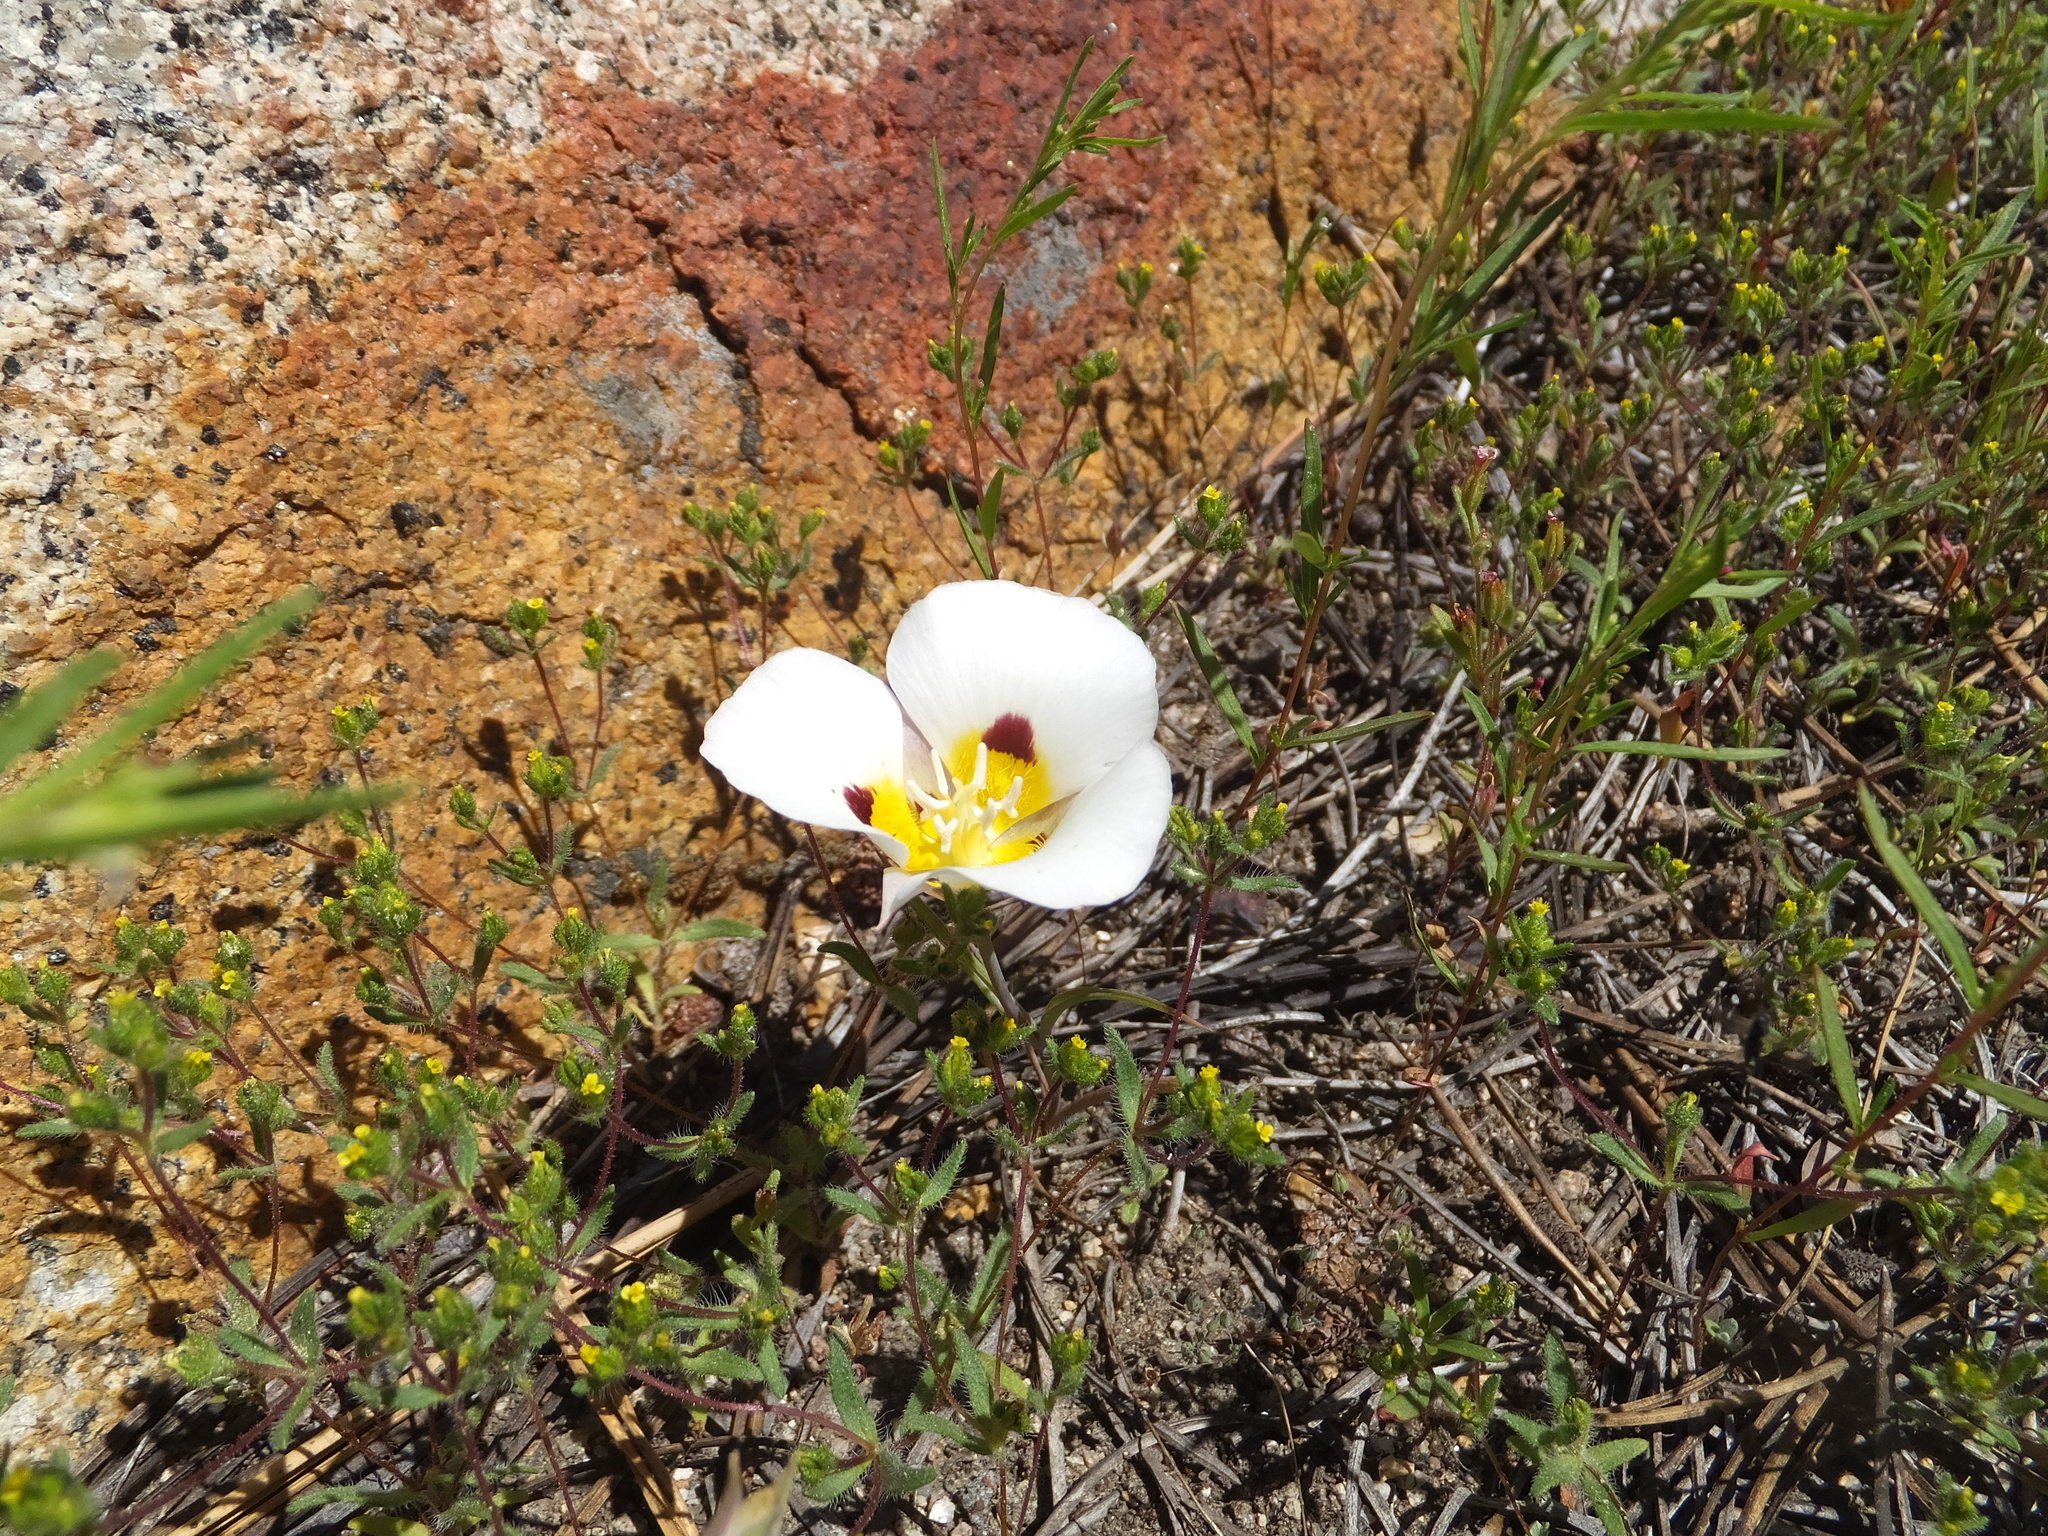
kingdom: Plantae
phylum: Tracheophyta
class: Liliopsida
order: Liliales
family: Liliaceae
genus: Calochortus
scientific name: Calochortus leichtlinii
